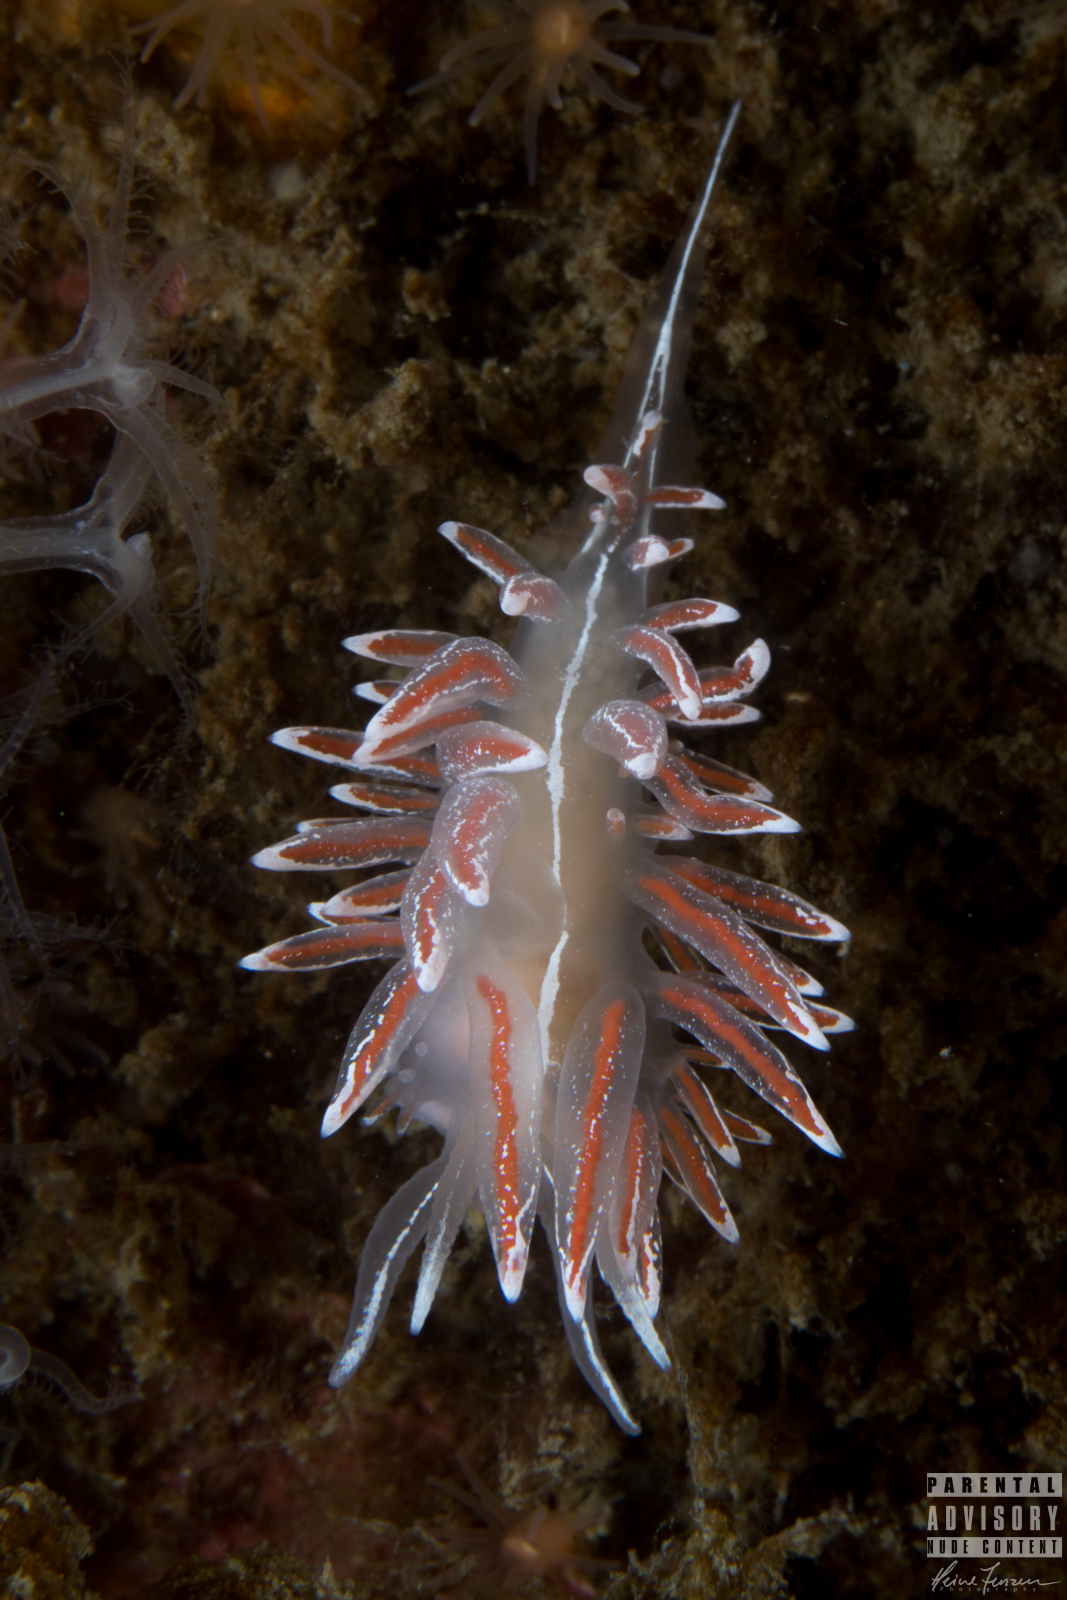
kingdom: Animalia
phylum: Mollusca
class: Gastropoda
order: Nudibranchia
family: Coryphellidae
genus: Coryphella
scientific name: Coryphella lineata
